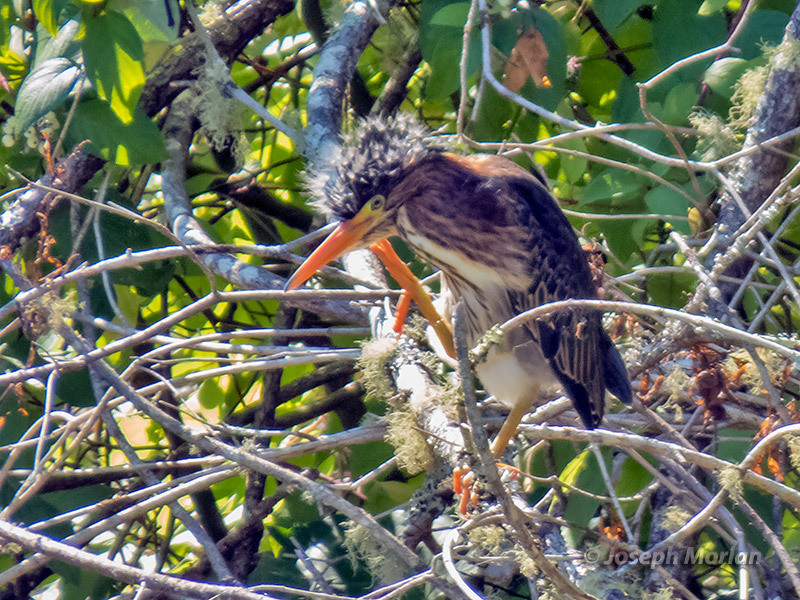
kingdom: Animalia
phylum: Chordata
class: Aves
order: Pelecaniformes
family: Ardeidae
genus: Butorides
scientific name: Butorides virescens
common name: Green heron
